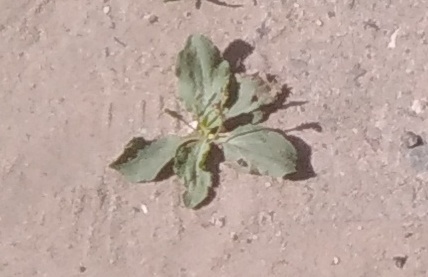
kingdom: Plantae
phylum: Tracheophyta
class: Magnoliopsida
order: Lamiales
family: Plantaginaceae
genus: Plantago
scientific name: Plantago major
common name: Common plantain
